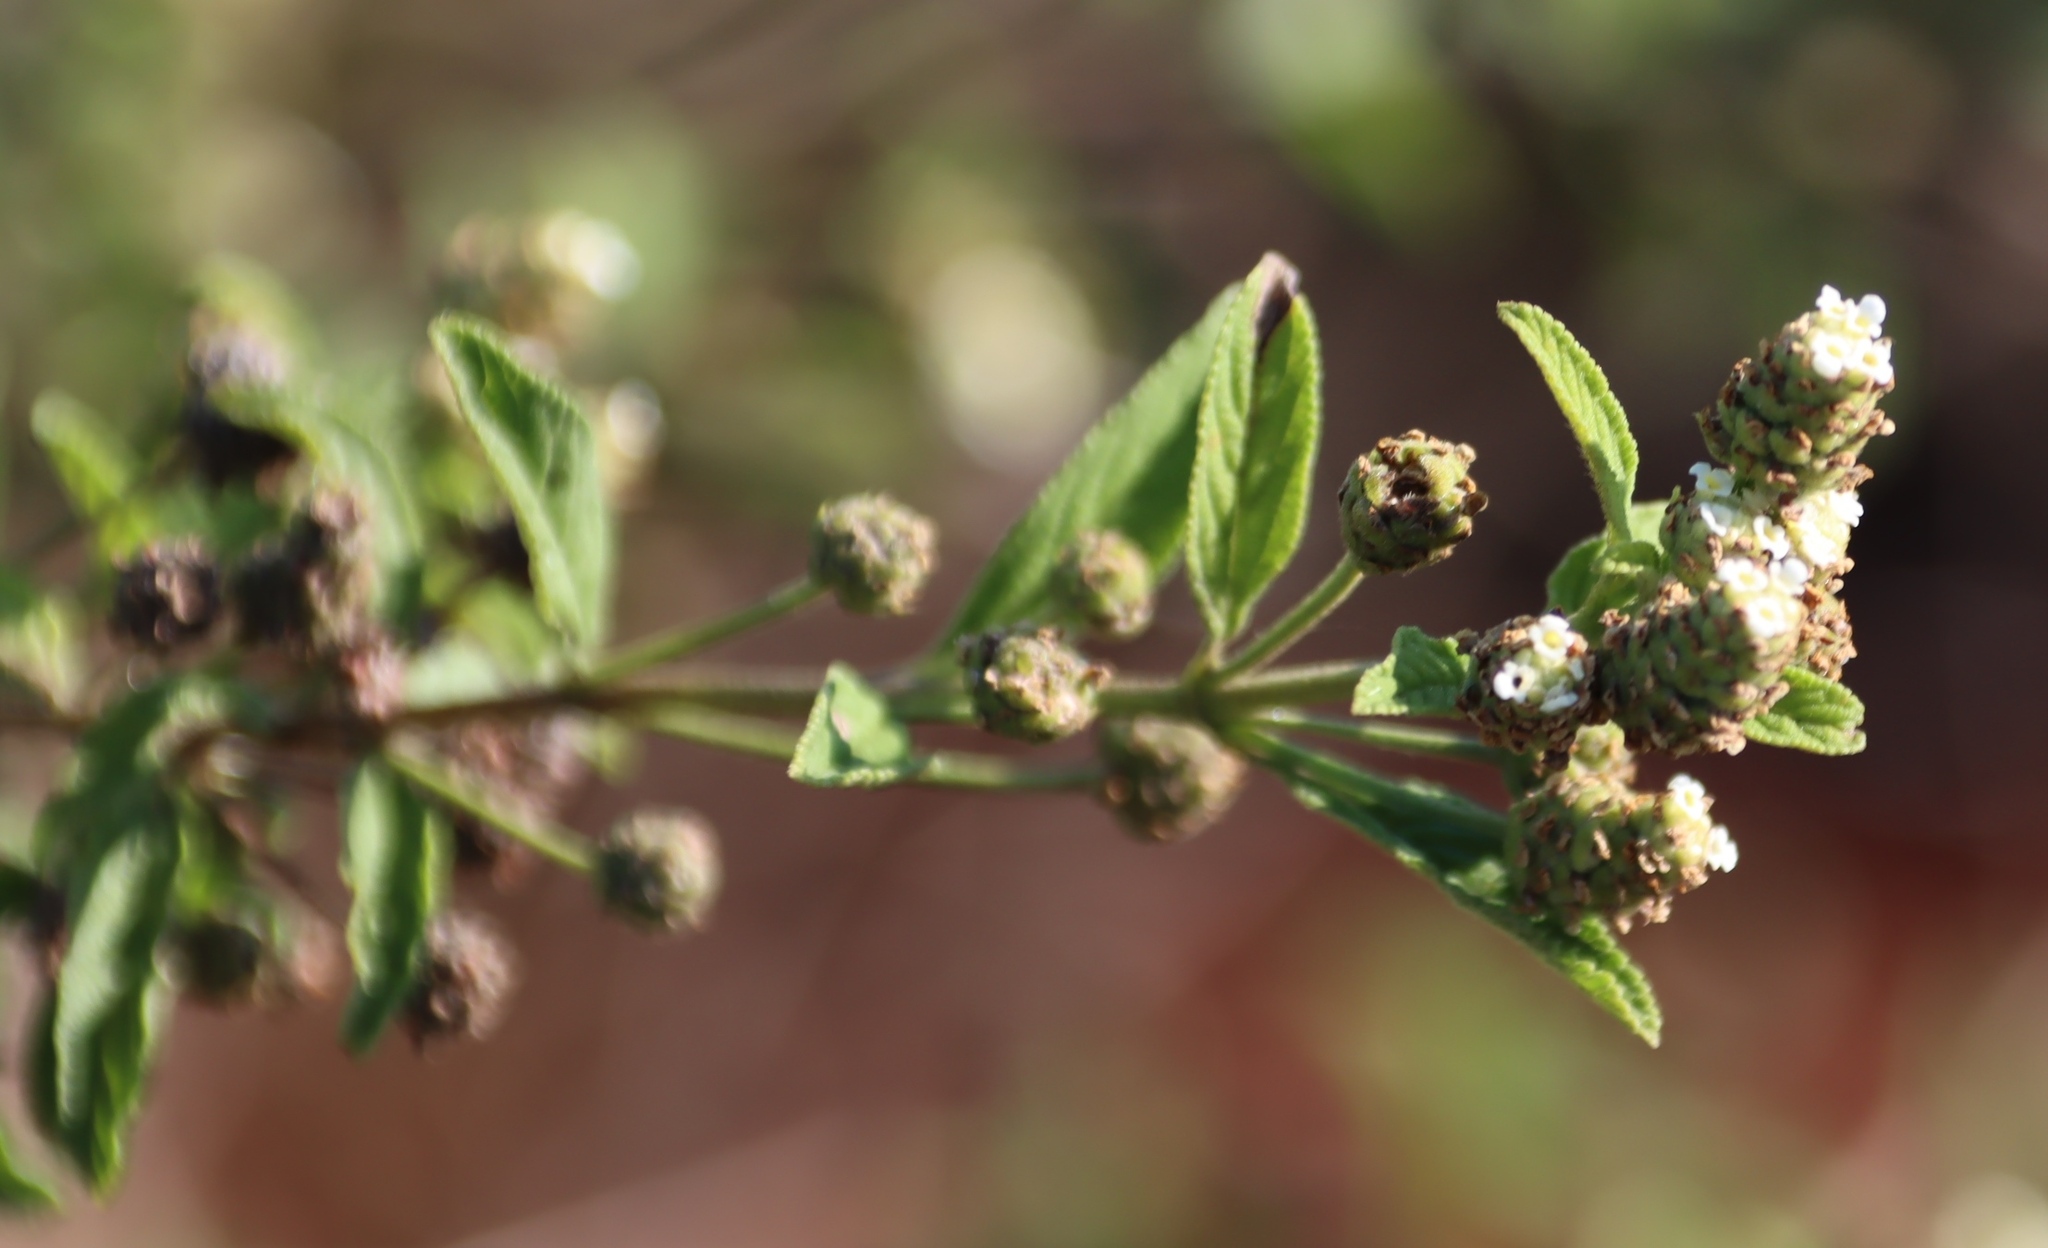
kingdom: Plantae
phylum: Tracheophyta
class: Magnoliopsida
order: Lamiales
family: Verbenaceae
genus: Lippia
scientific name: Lippia javanica
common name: Lemonbush
